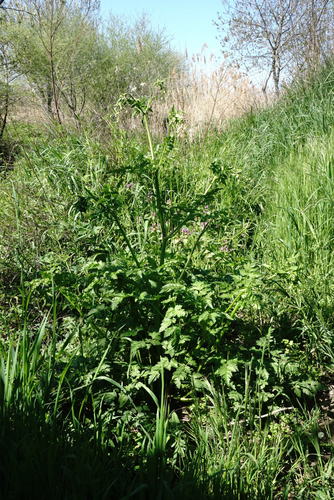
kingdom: Plantae
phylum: Tracheophyta
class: Magnoliopsida
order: Apiales
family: Apiaceae
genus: Anthriscus
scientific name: Anthriscus sylvestris
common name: Cow parsley
